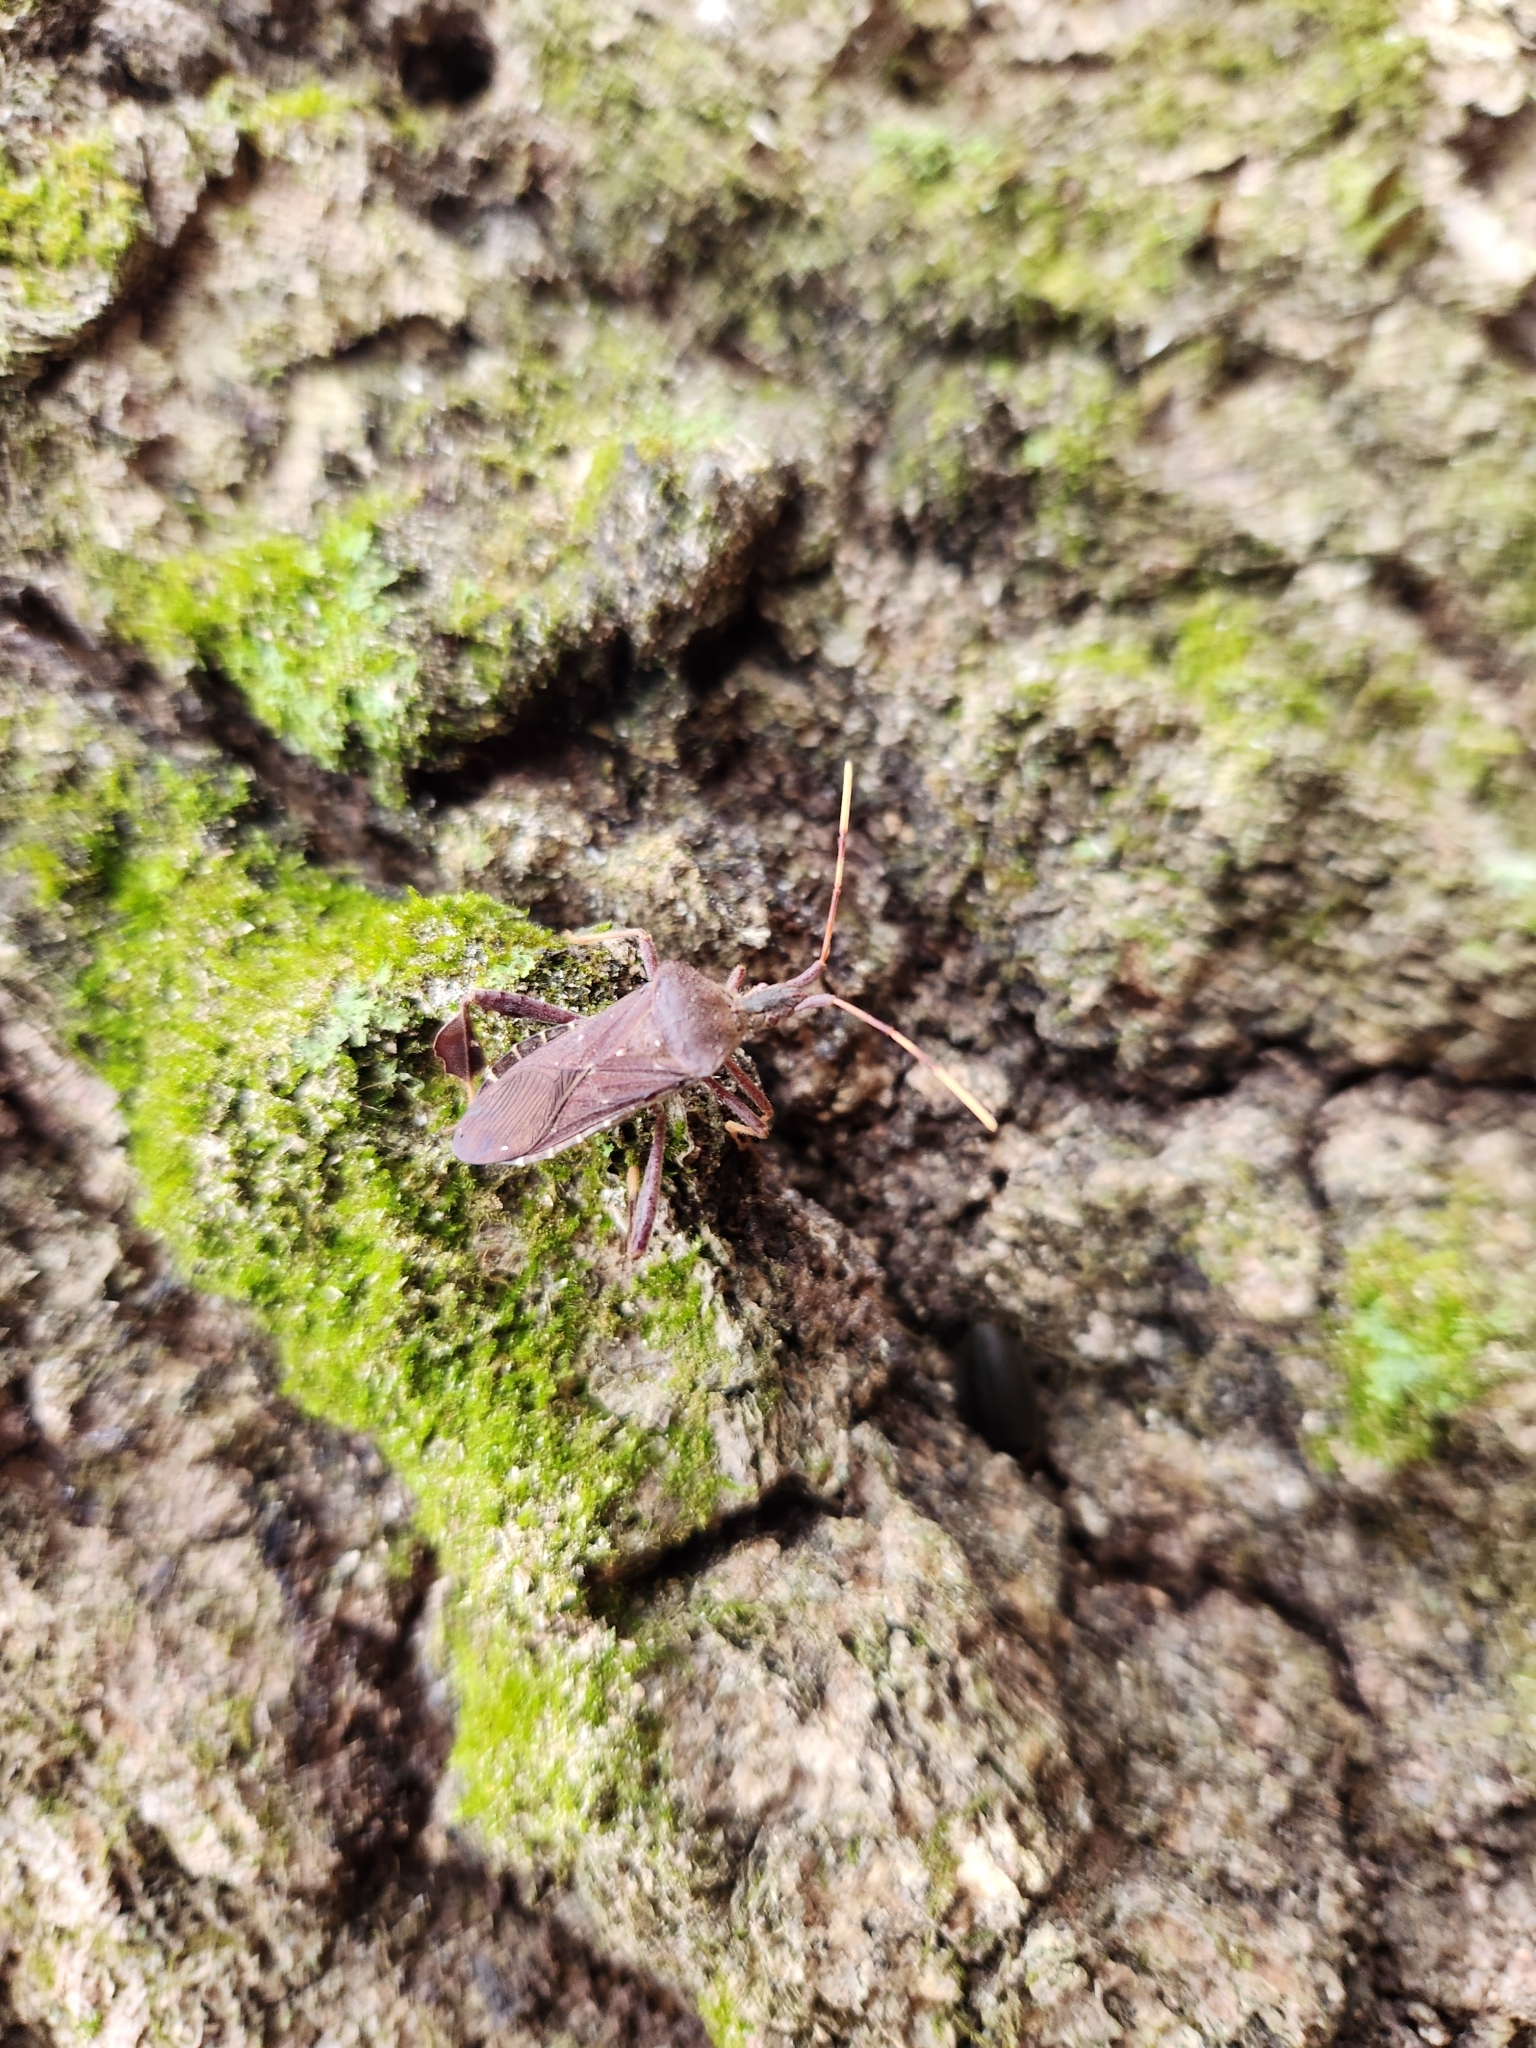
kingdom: Animalia
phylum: Arthropoda
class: Insecta
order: Hemiptera
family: Coreidae
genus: Leptoglossus
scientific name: Leptoglossus oppositus
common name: Northern leaf-footed bug
